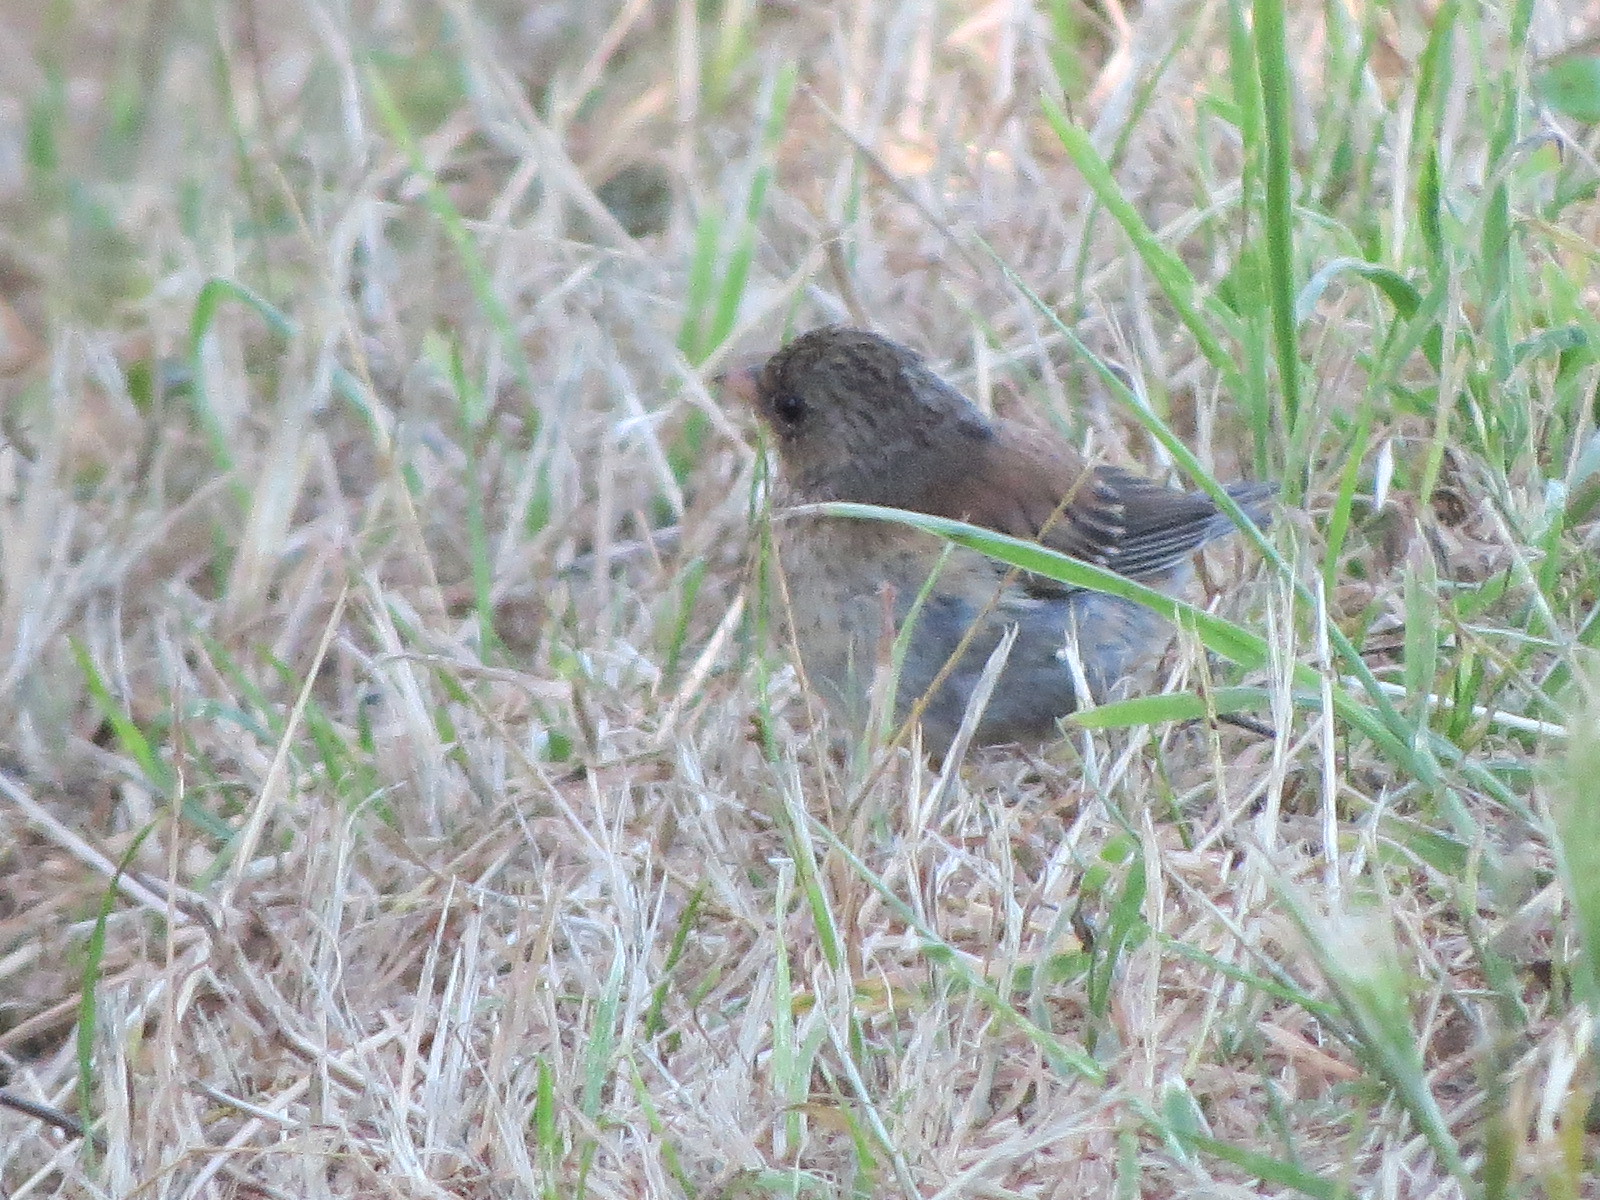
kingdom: Animalia
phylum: Chordata
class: Aves
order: Passeriformes
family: Passerellidae
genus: Junco
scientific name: Junco hyemalis
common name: Dark-eyed junco
